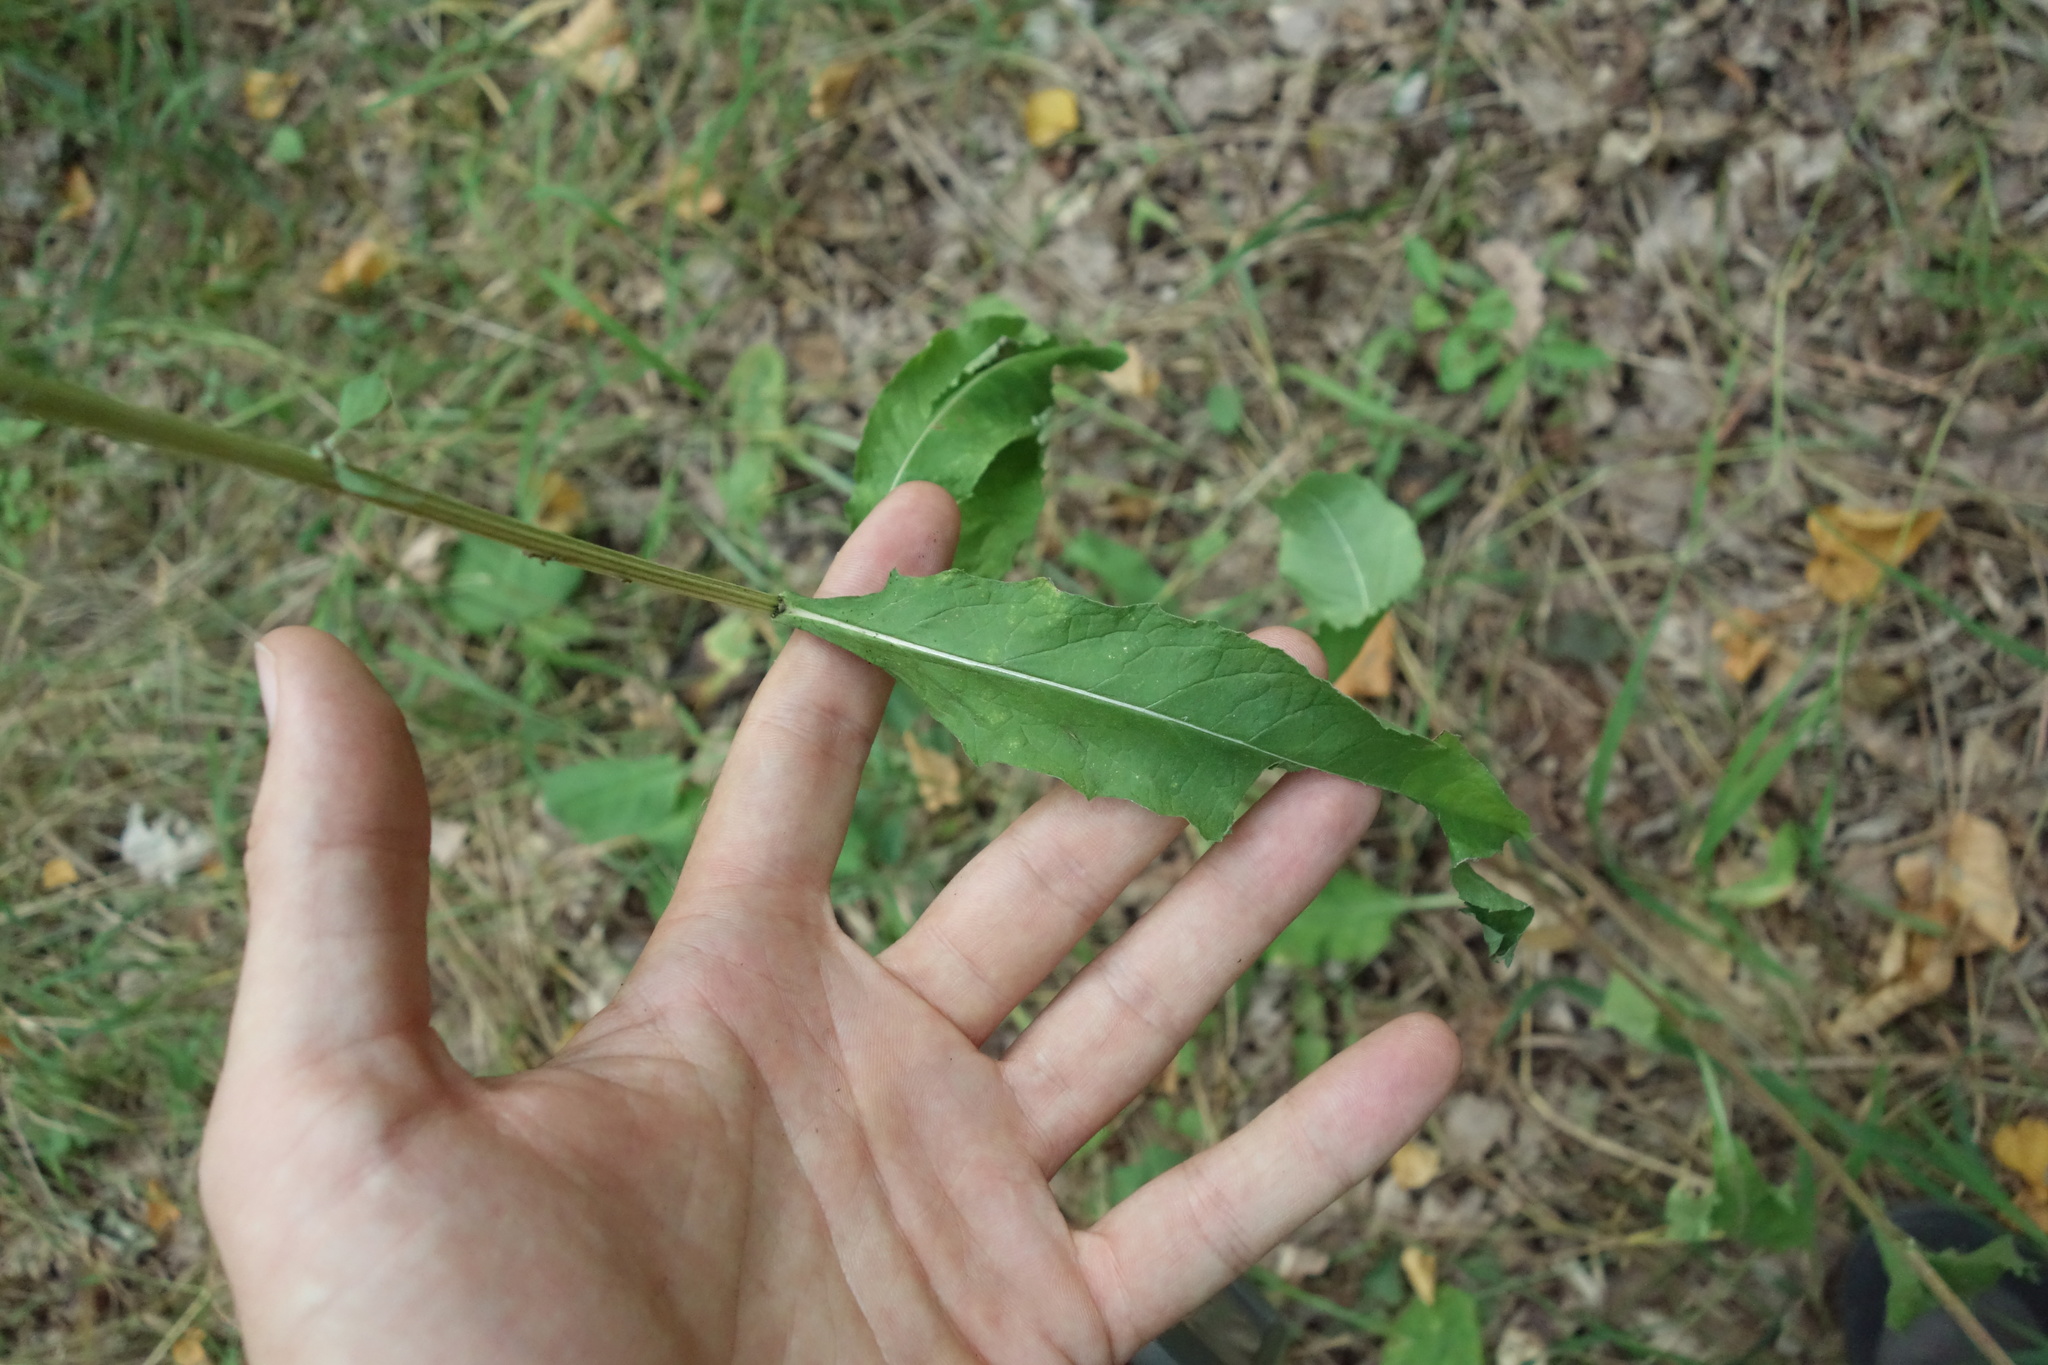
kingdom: Plantae
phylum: Tracheophyta
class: Magnoliopsida
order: Asterales
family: Asteraceae
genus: Centaurea
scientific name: Centaurea pseudophrygia
